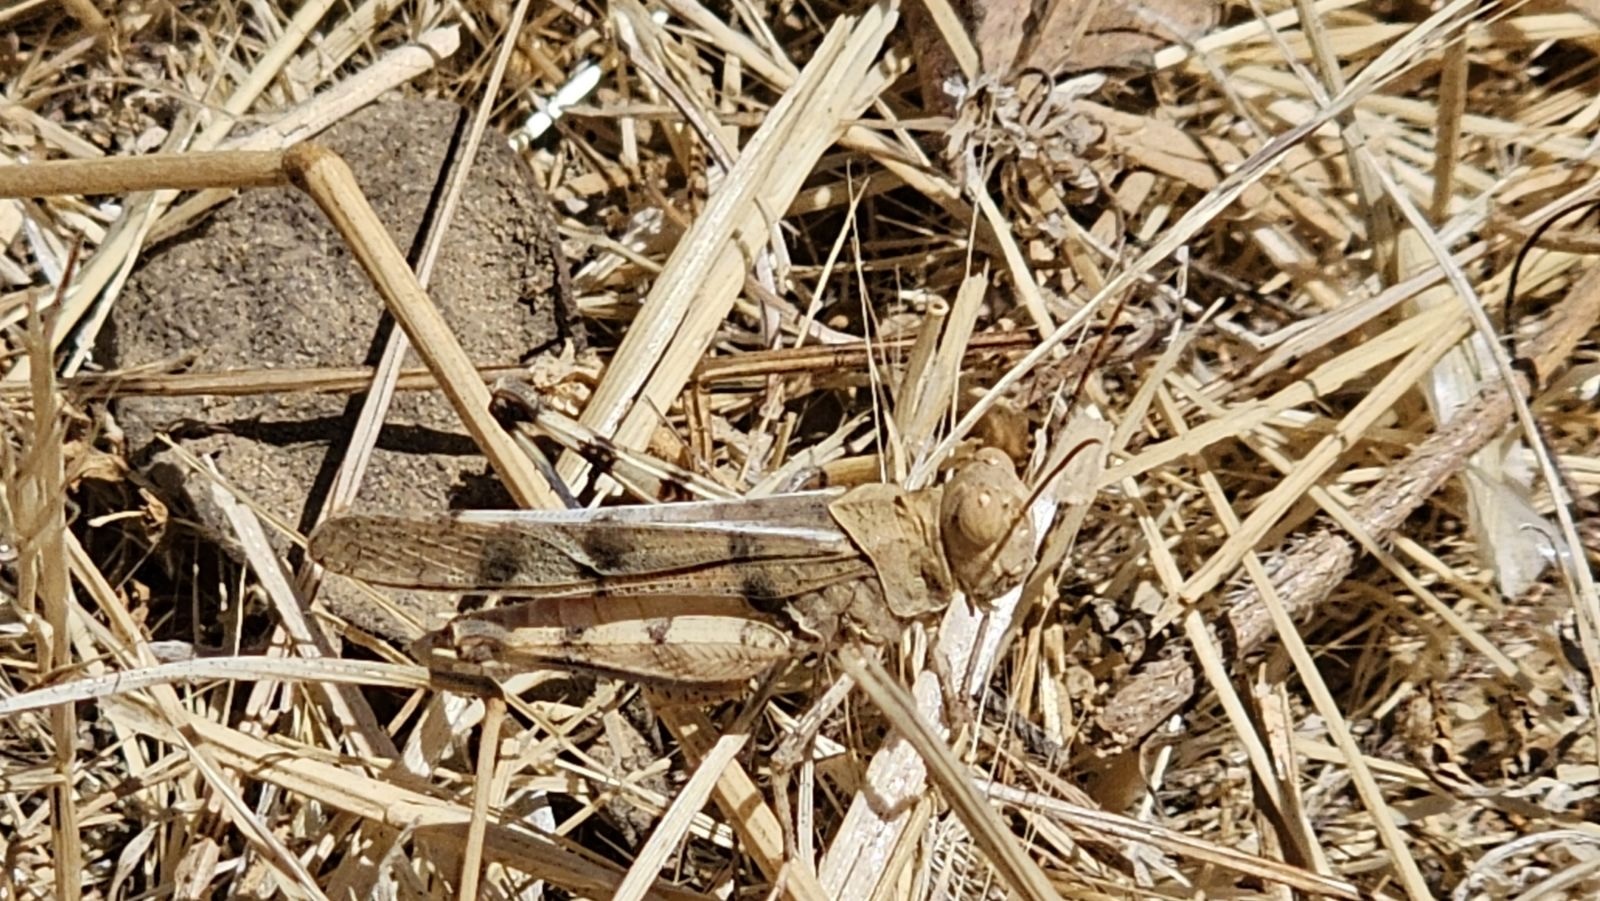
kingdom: Animalia
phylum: Arthropoda
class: Insecta
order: Orthoptera
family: Acrididae
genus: Dissosteira
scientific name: Dissosteira pictipennis
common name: California rose-winged grasshopper
